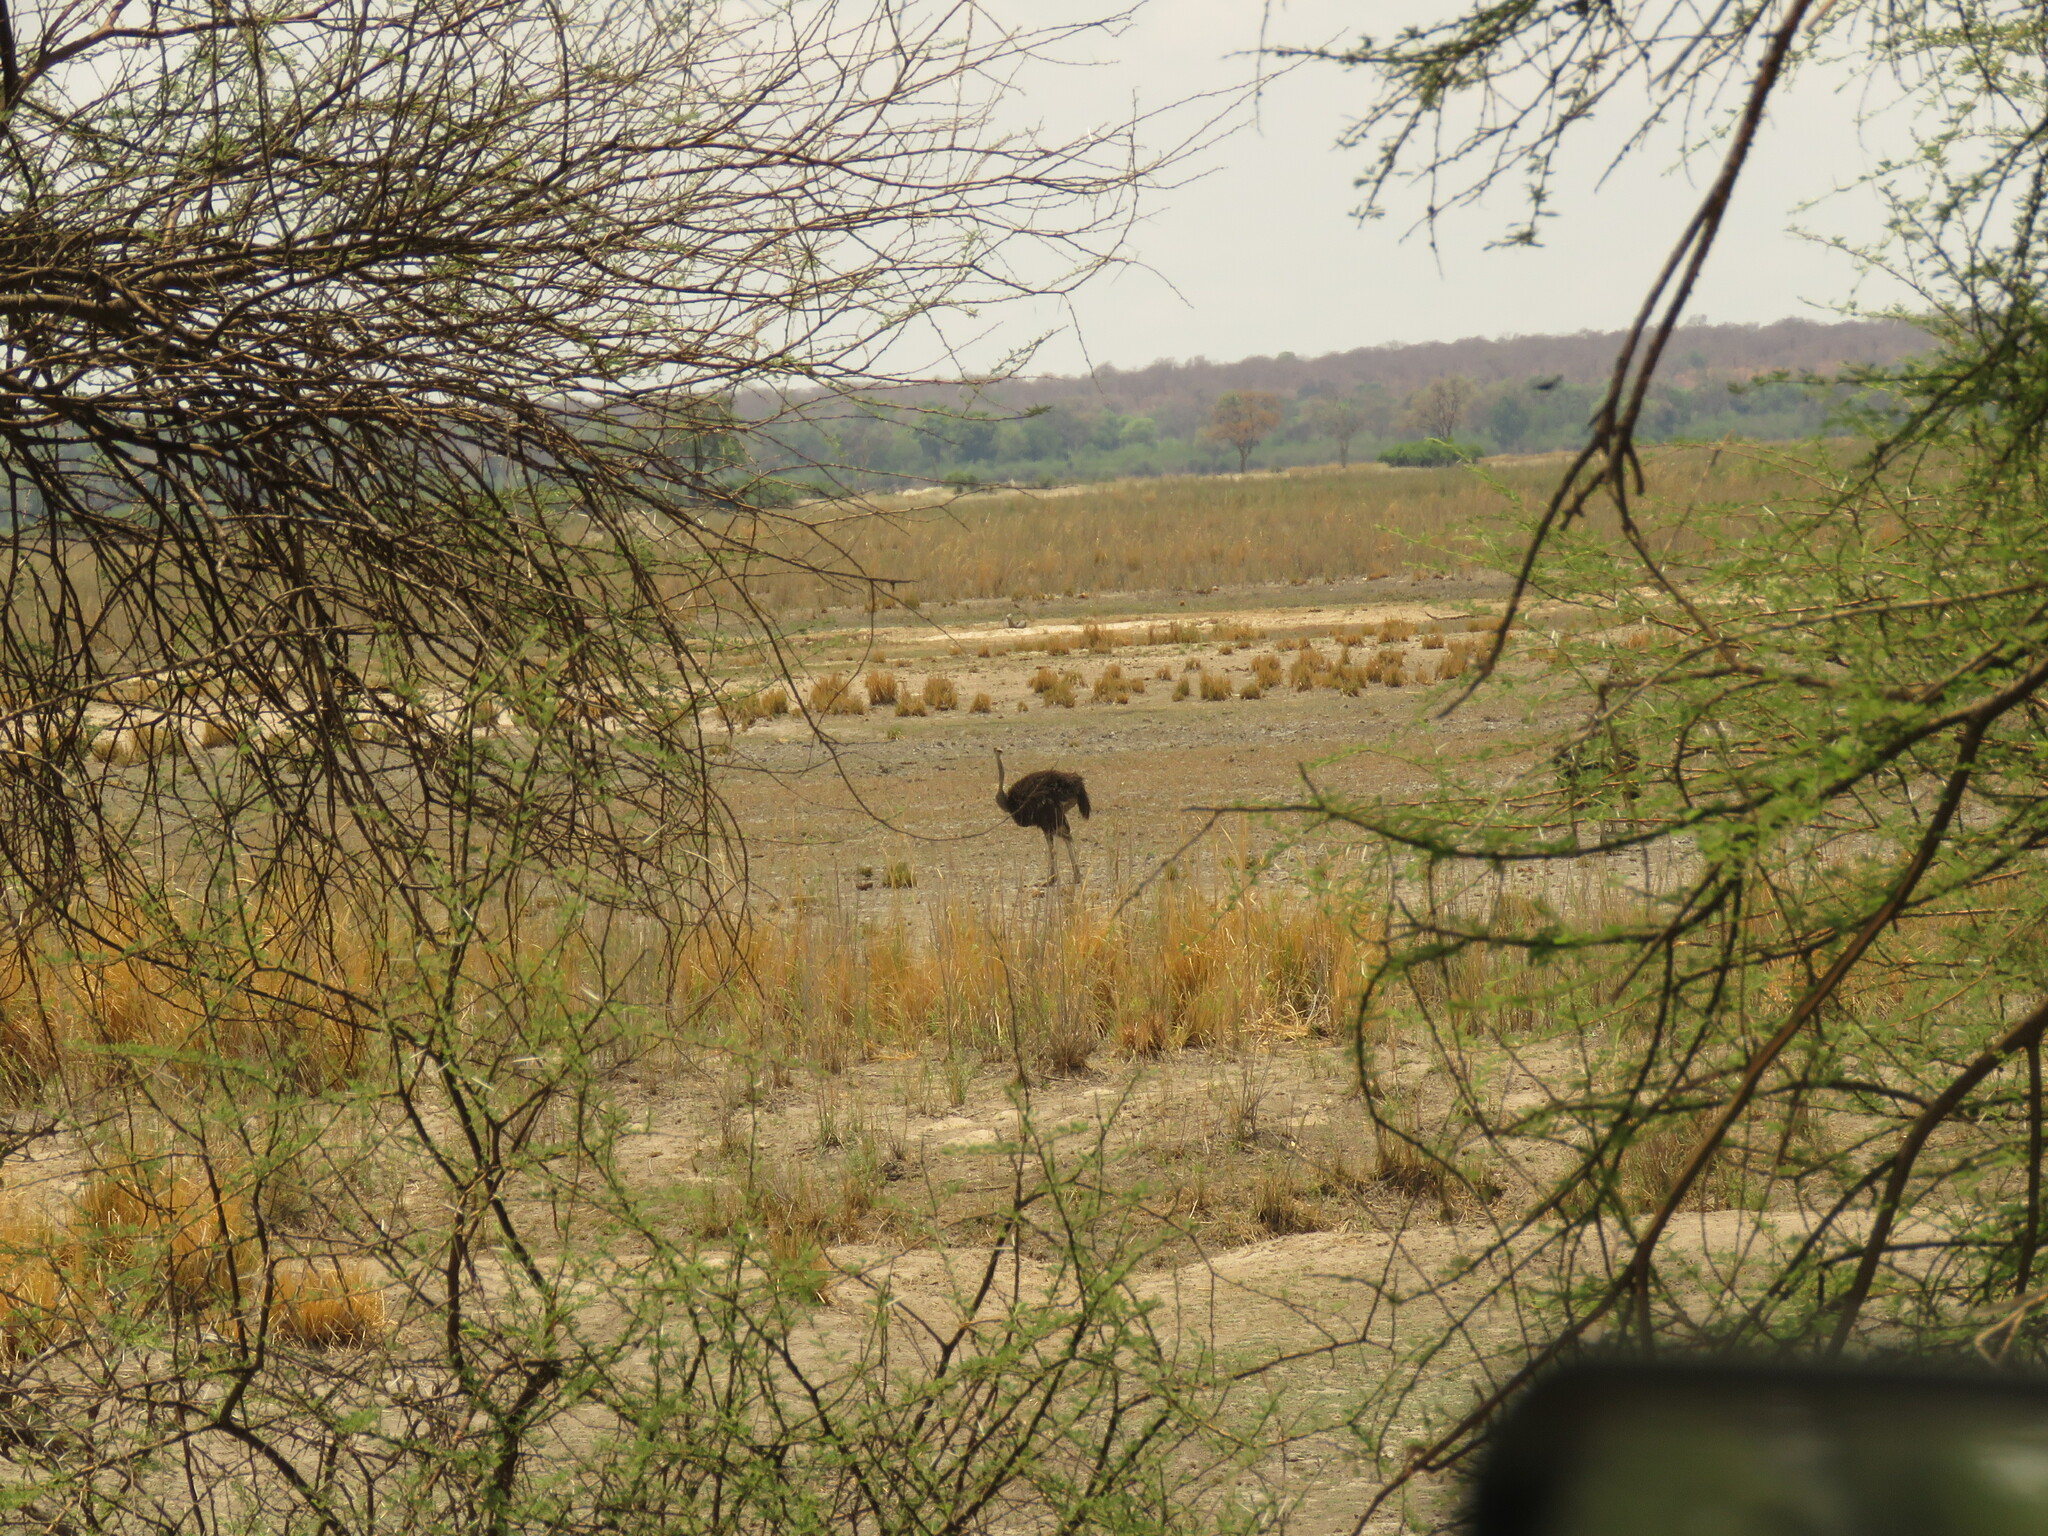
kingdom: Animalia
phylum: Chordata
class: Aves
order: Struthioniformes
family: Struthionidae
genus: Struthio
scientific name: Struthio camelus
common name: Common ostrich
